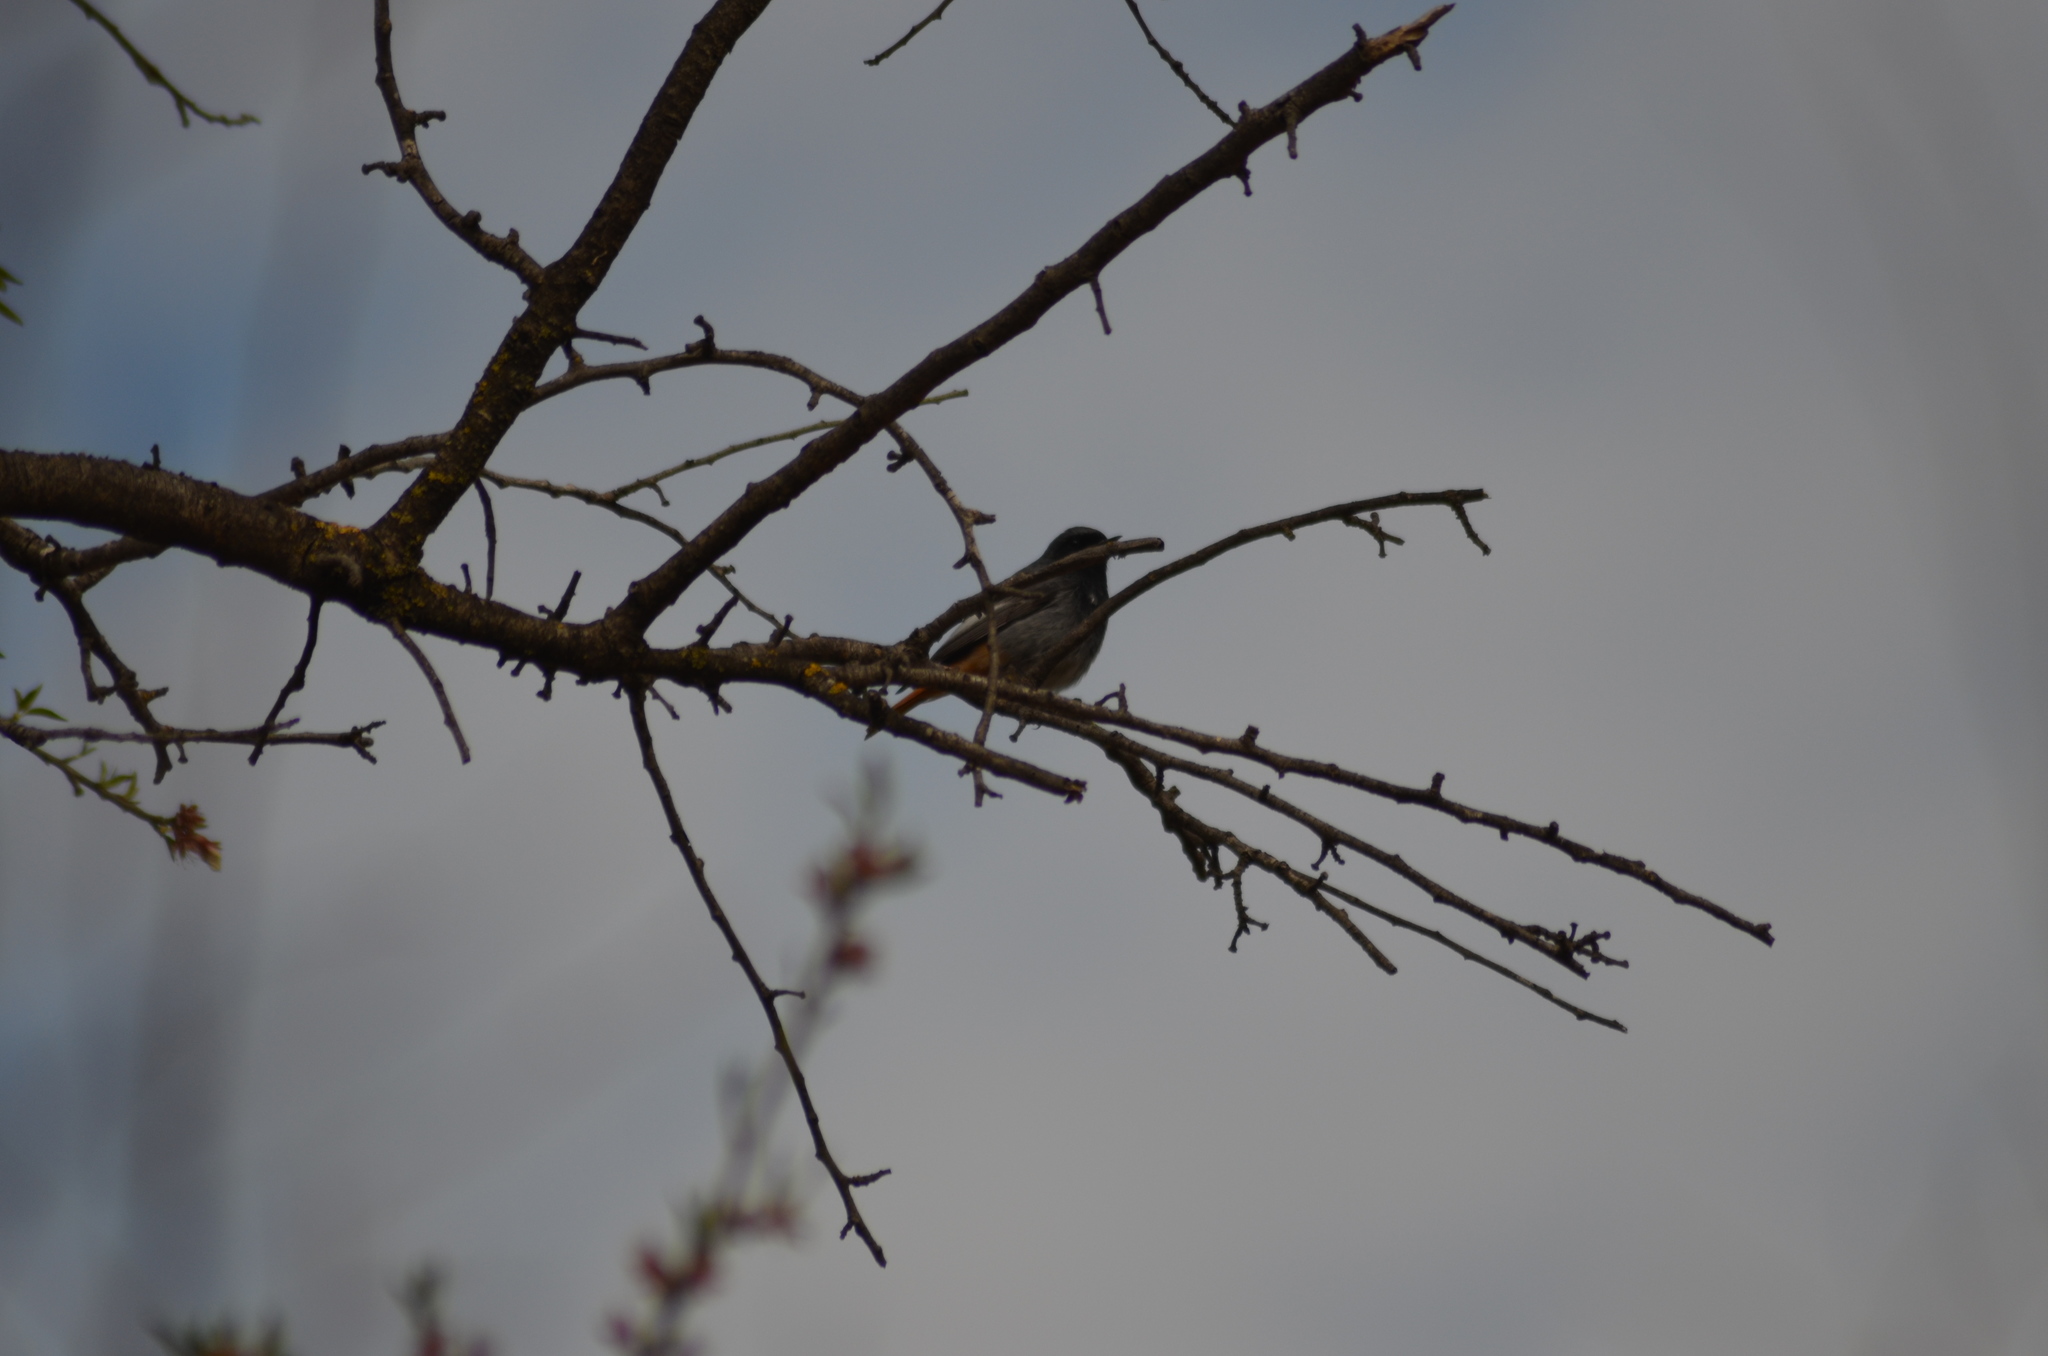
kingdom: Animalia
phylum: Chordata
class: Aves
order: Passeriformes
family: Muscicapidae
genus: Phoenicurus
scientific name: Phoenicurus ochruros
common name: Black redstart
